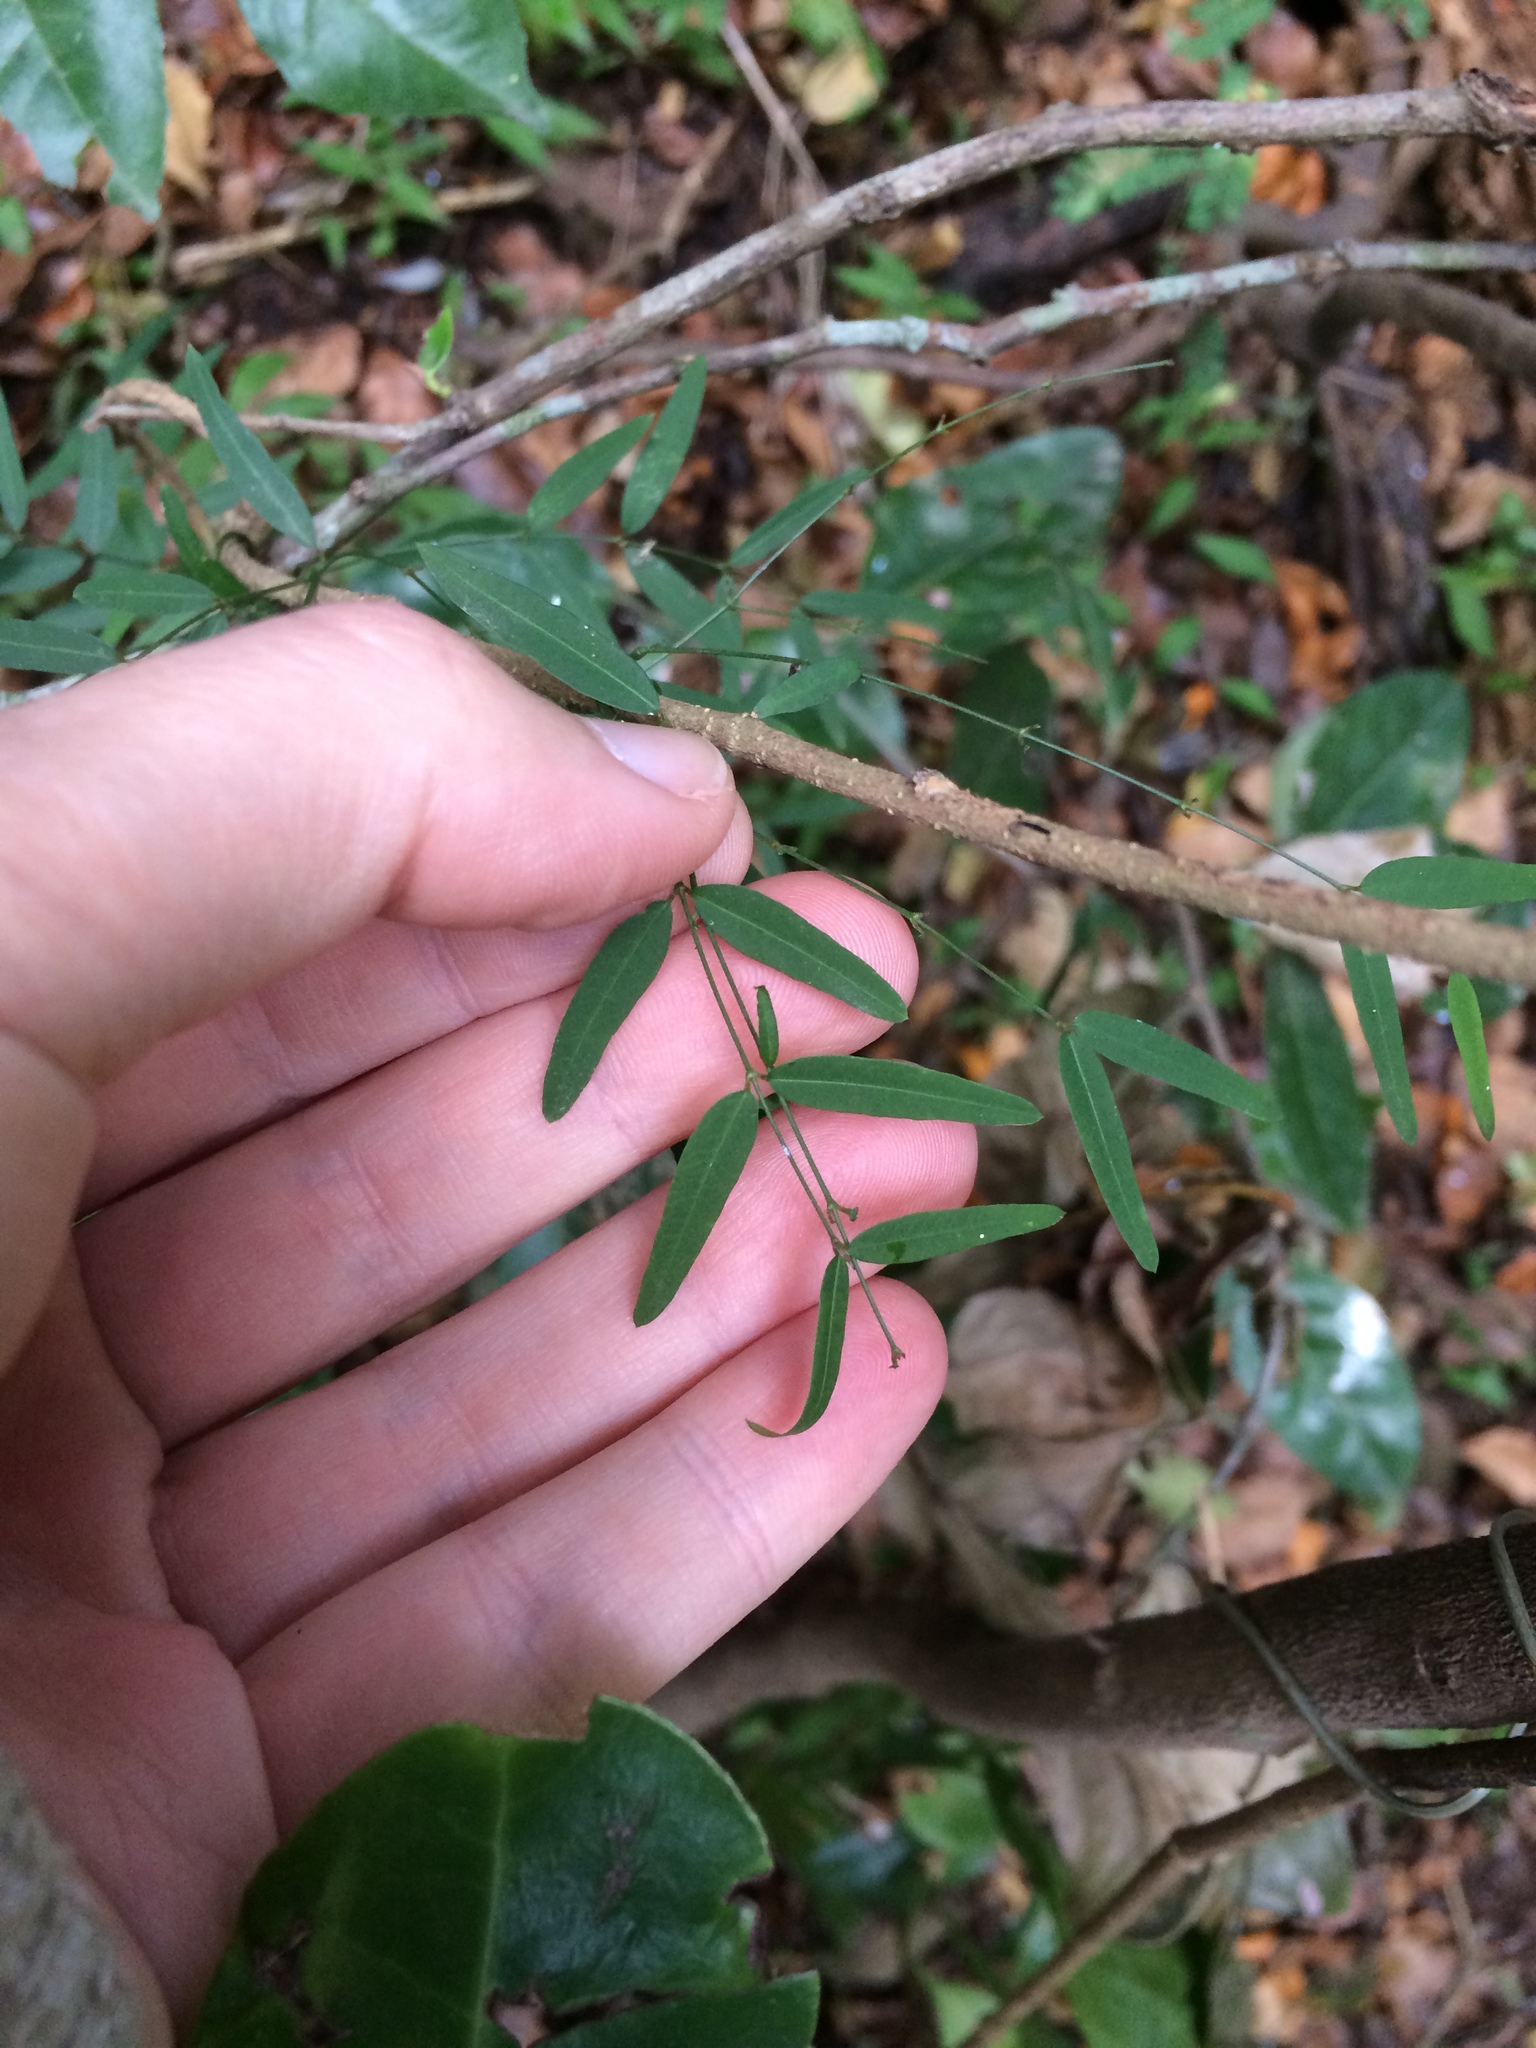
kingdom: Plantae
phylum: Tracheophyta
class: Magnoliopsida
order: Gentianales
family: Apocynaceae
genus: Secamone
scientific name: Secamone filiformis
